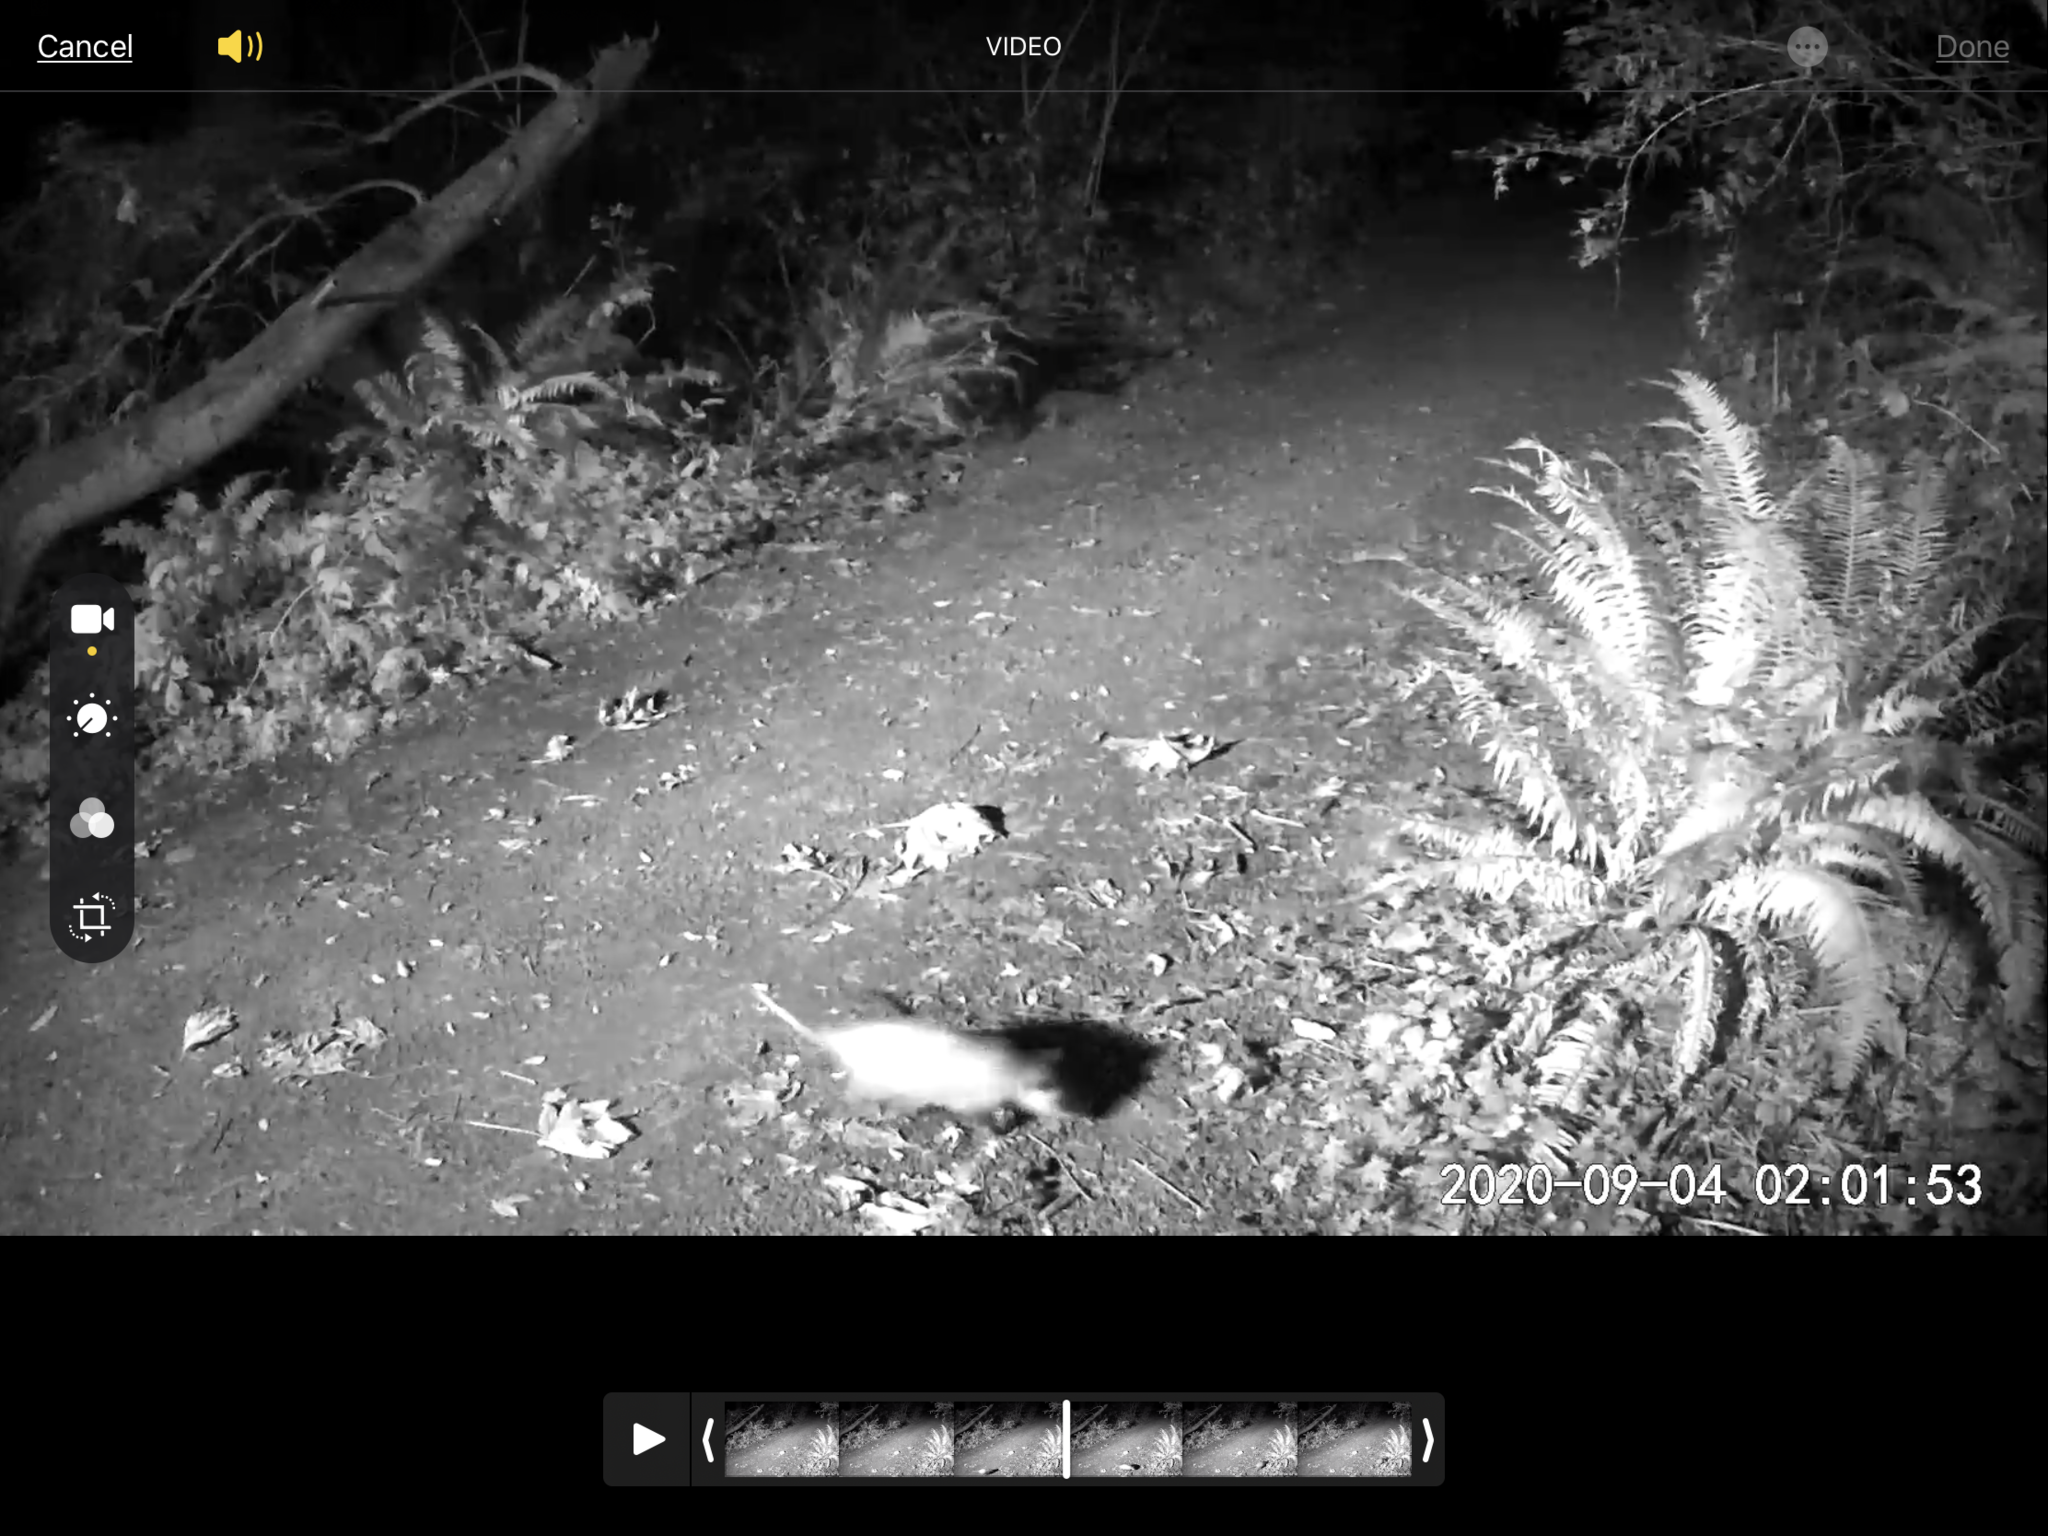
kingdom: Animalia
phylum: Chordata
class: Mammalia
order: Didelphimorphia
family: Didelphidae
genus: Didelphis
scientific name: Didelphis virginiana
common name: Virginia opossum
